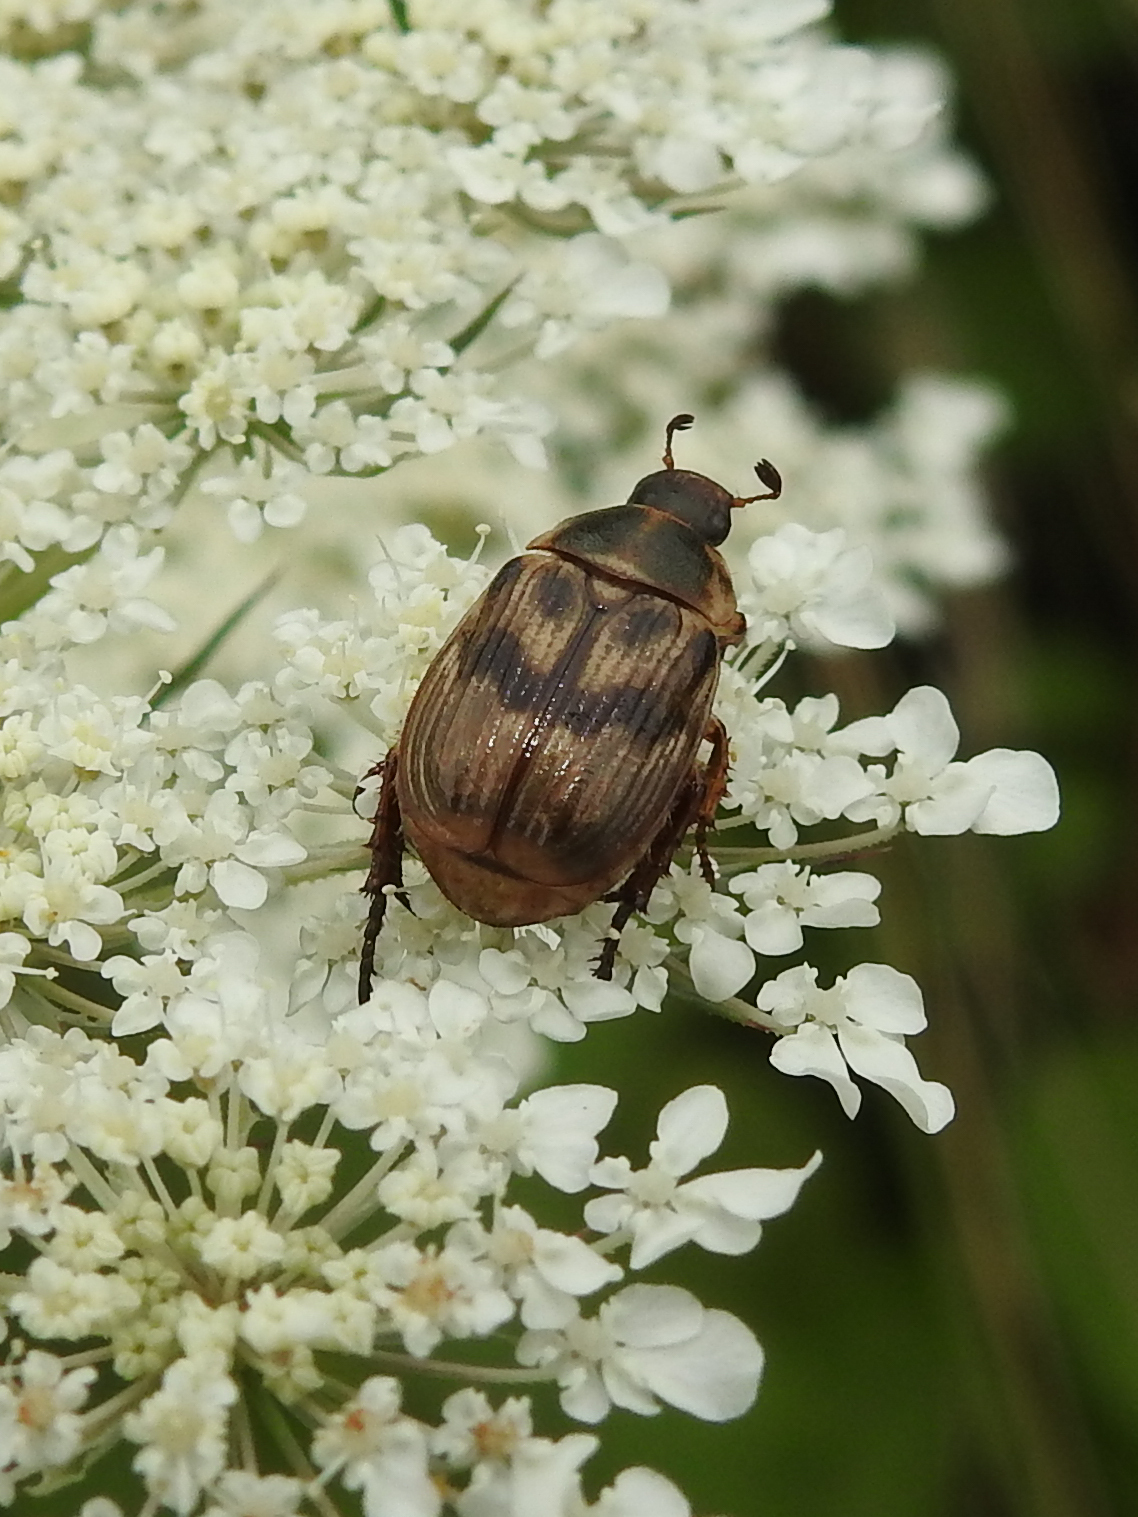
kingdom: Animalia
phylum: Arthropoda
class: Insecta
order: Coleoptera
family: Scarabaeidae
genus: Exomala
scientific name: Exomala orientalis
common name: Oriental beetle
